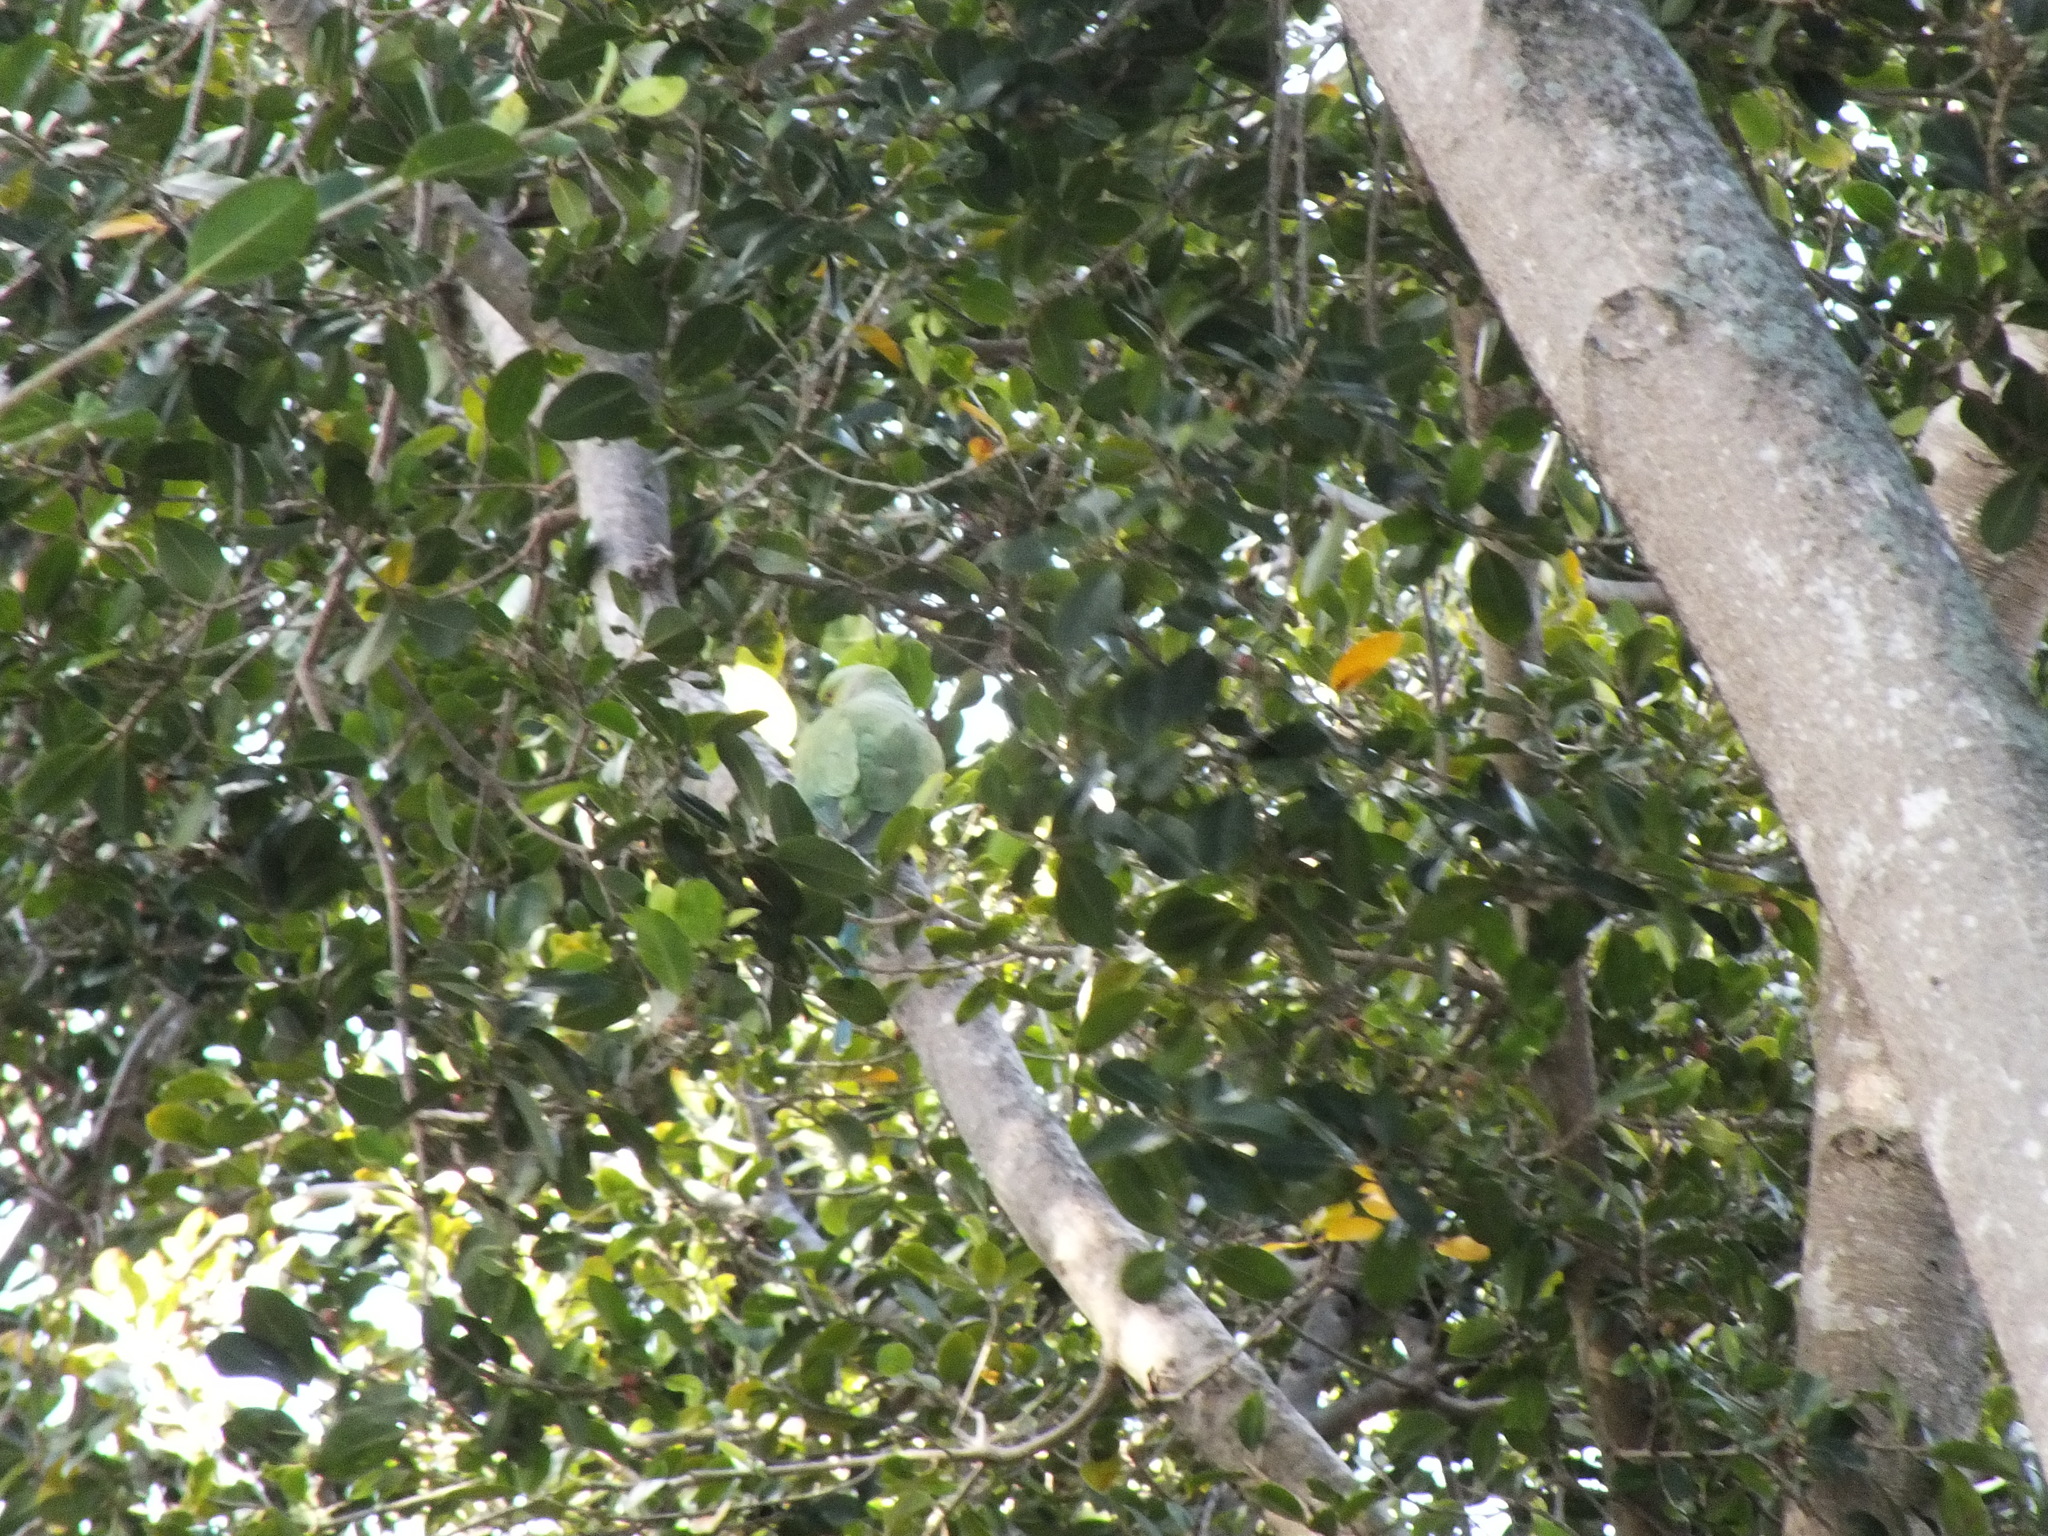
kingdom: Animalia
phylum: Chordata
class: Aves
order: Psittaciformes
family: Psittacidae
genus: Psittacula
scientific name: Psittacula krameri
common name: Rose-ringed parakeet
